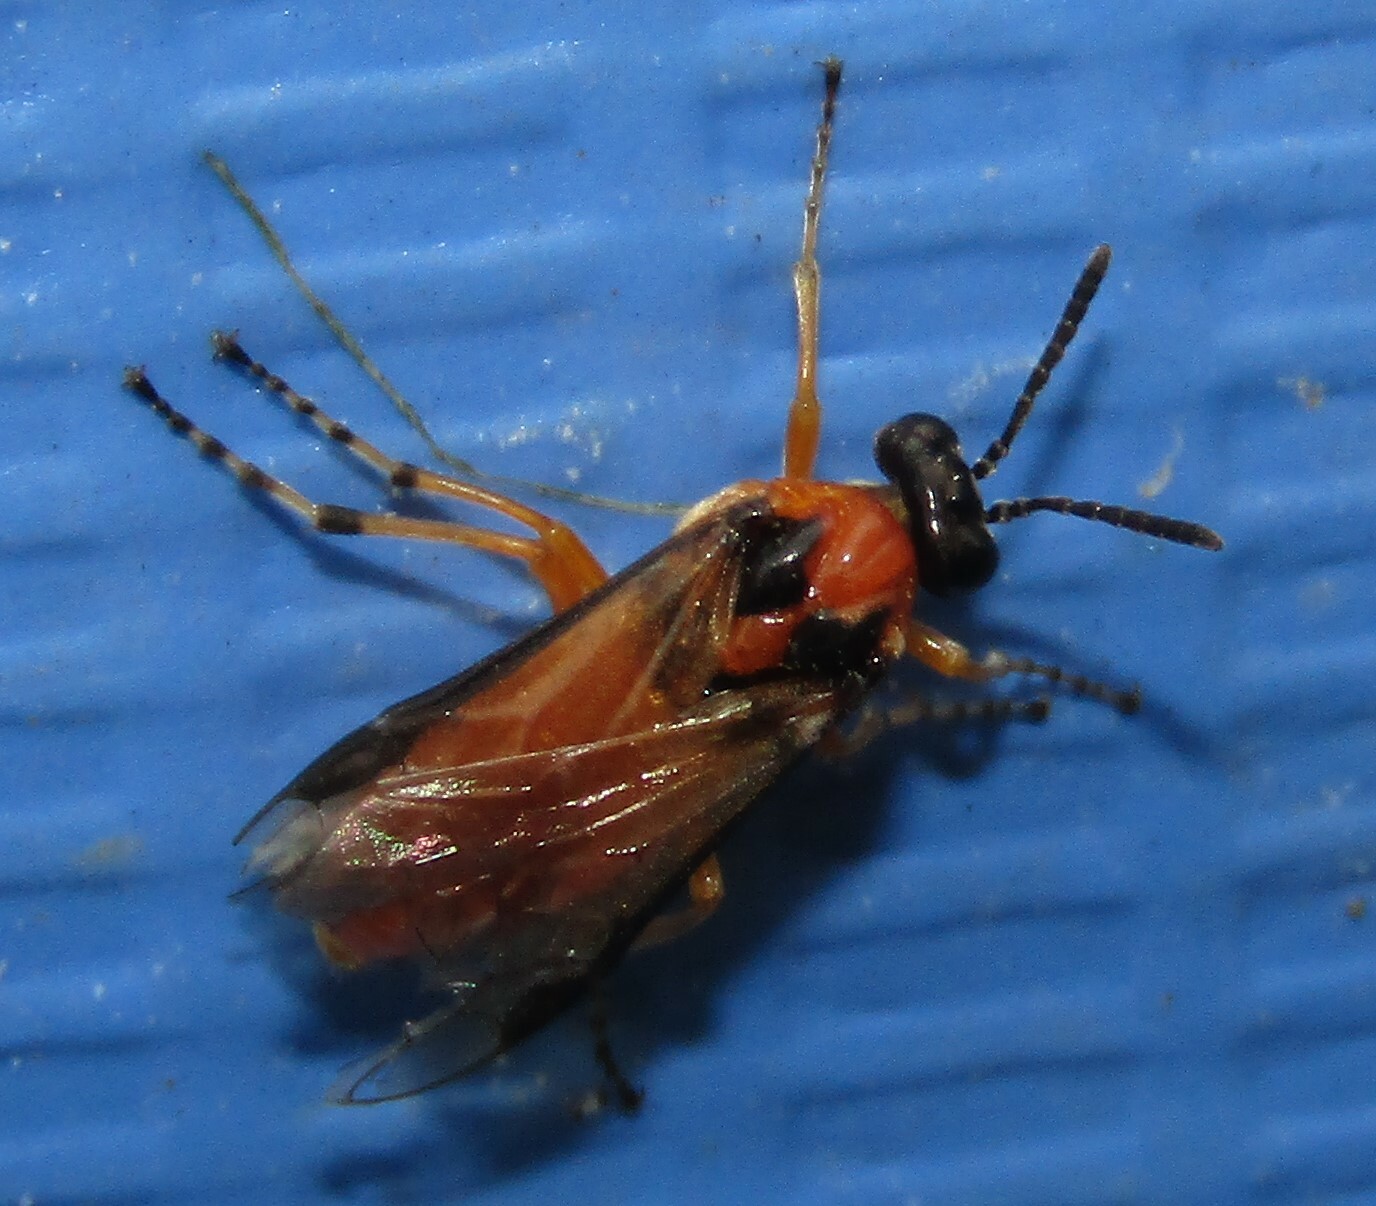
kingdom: Animalia
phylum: Arthropoda
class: Insecta
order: Hymenoptera
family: Tenthredinidae
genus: Athalia
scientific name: Athalia rosae
